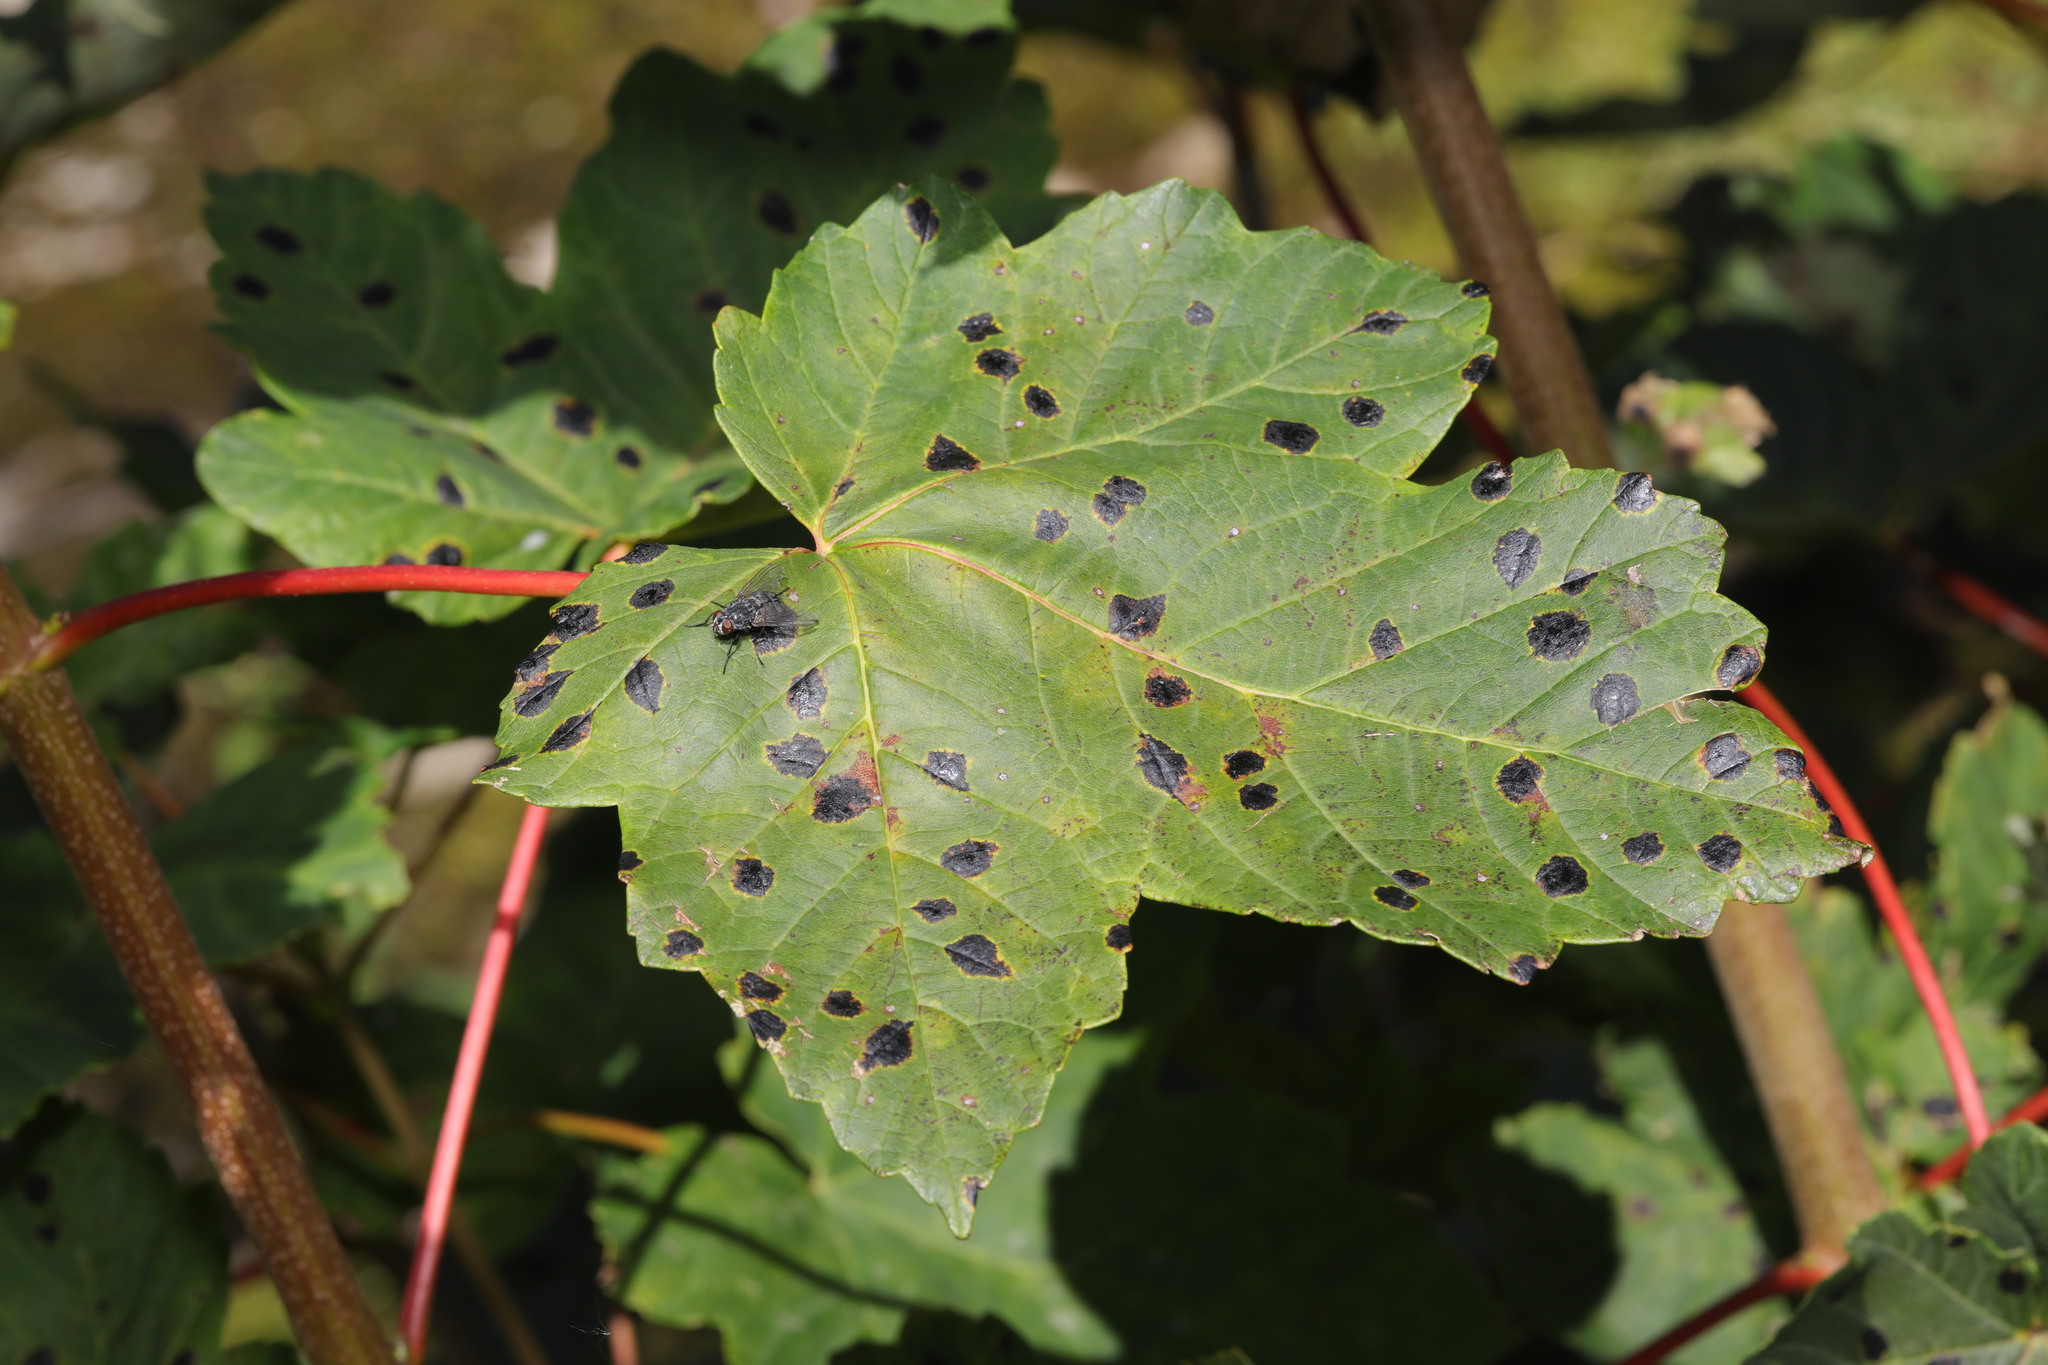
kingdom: Plantae
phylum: Tracheophyta
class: Magnoliopsida
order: Sapindales
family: Sapindaceae
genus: Acer
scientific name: Acer pseudoplatanus
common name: Sycamore
